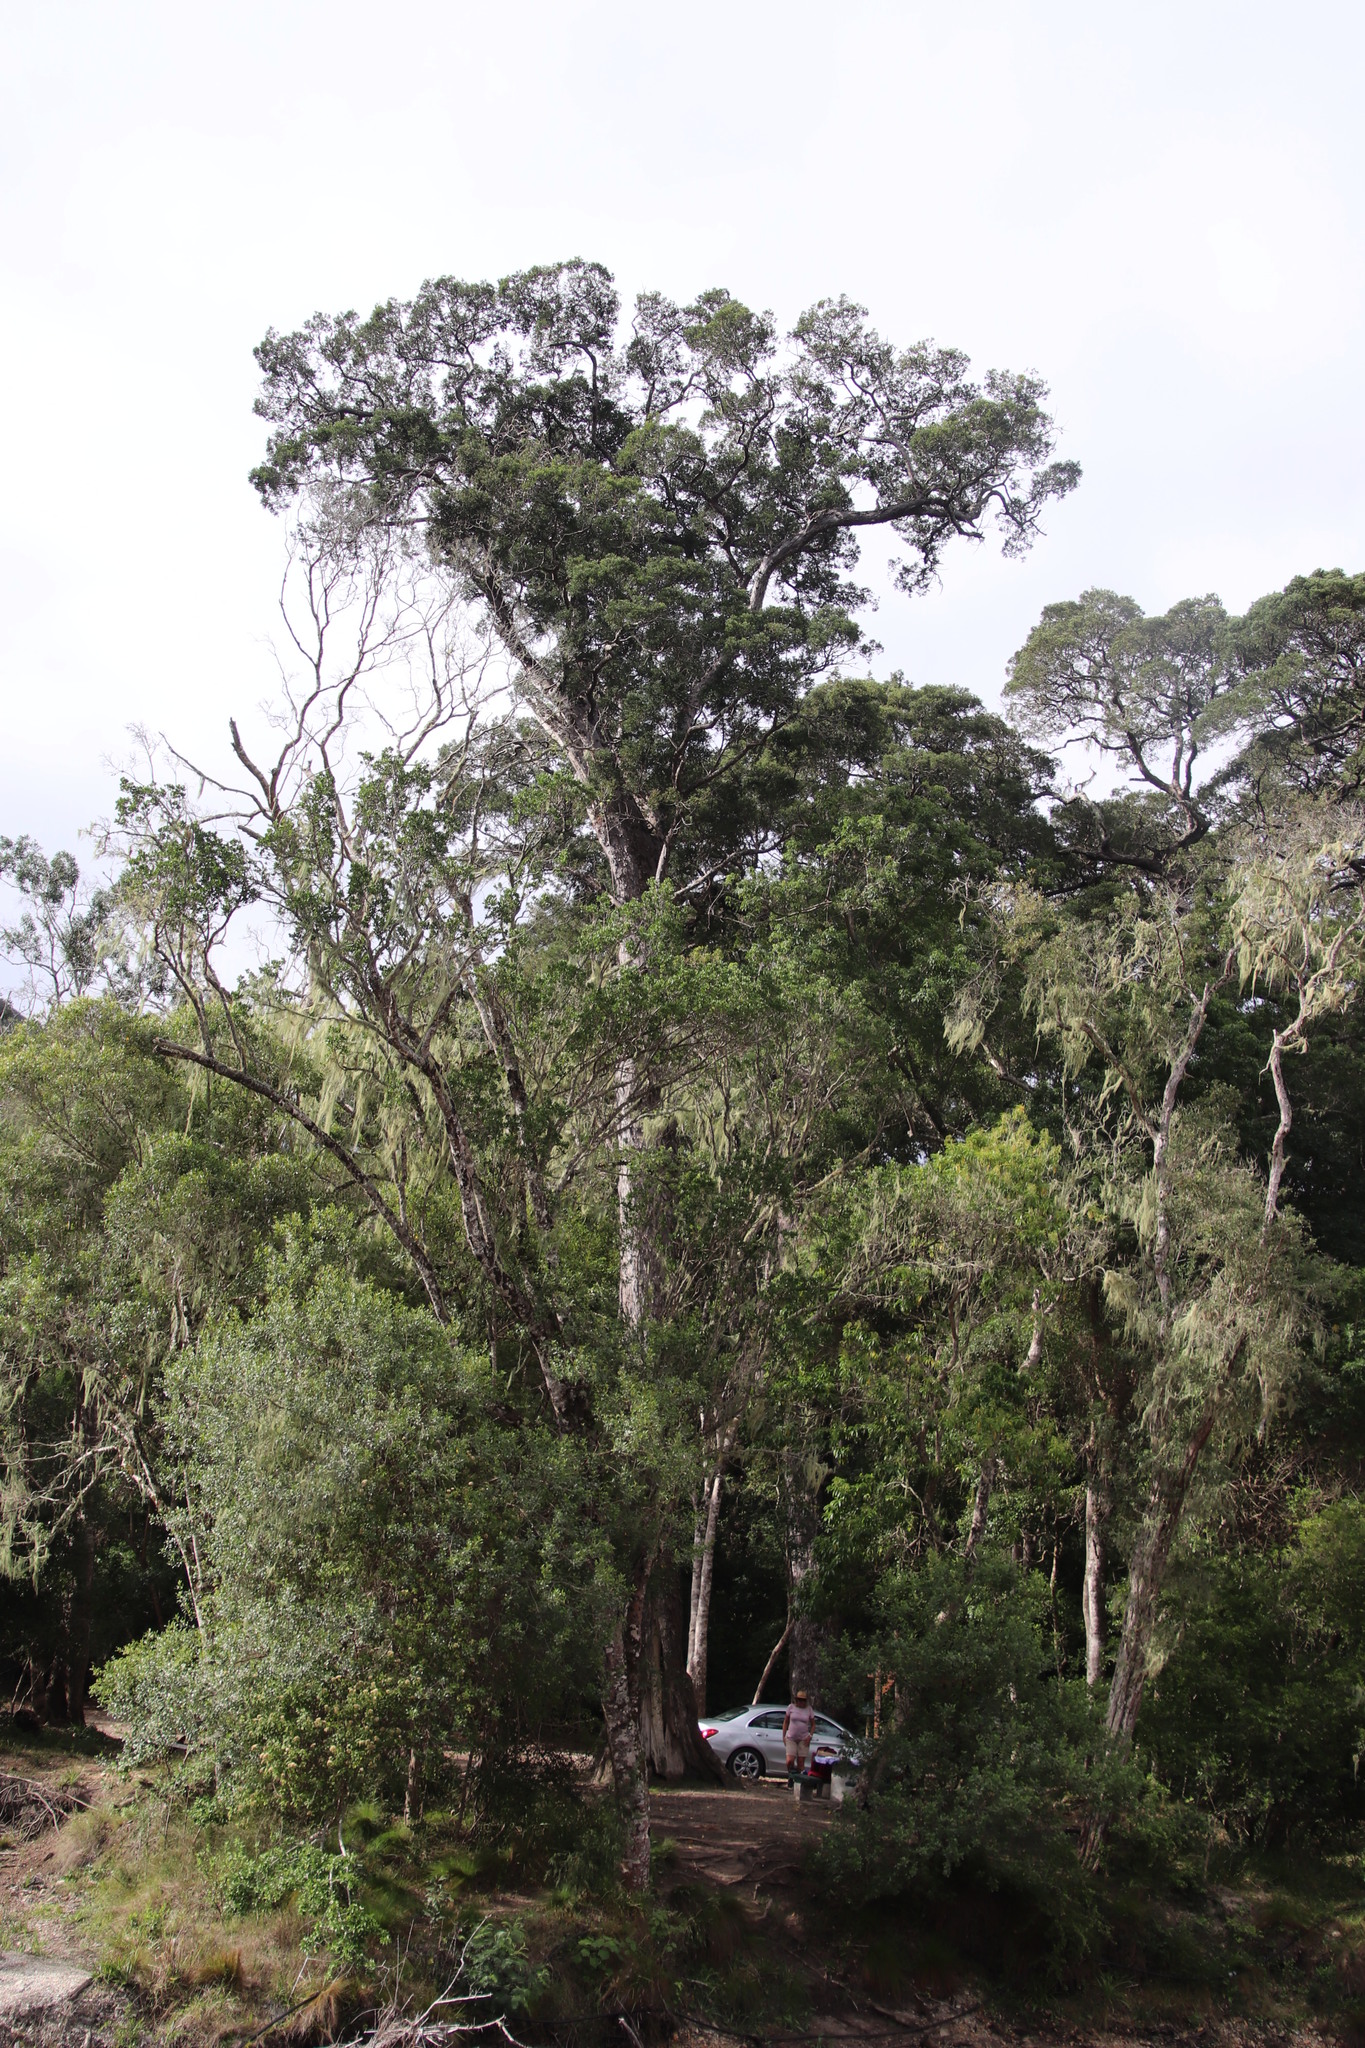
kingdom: Plantae
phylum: Tracheophyta
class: Pinopsida
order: Pinales
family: Podocarpaceae
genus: Afrocarpus
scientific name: Afrocarpus falcatus
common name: Bastard yellowwood
